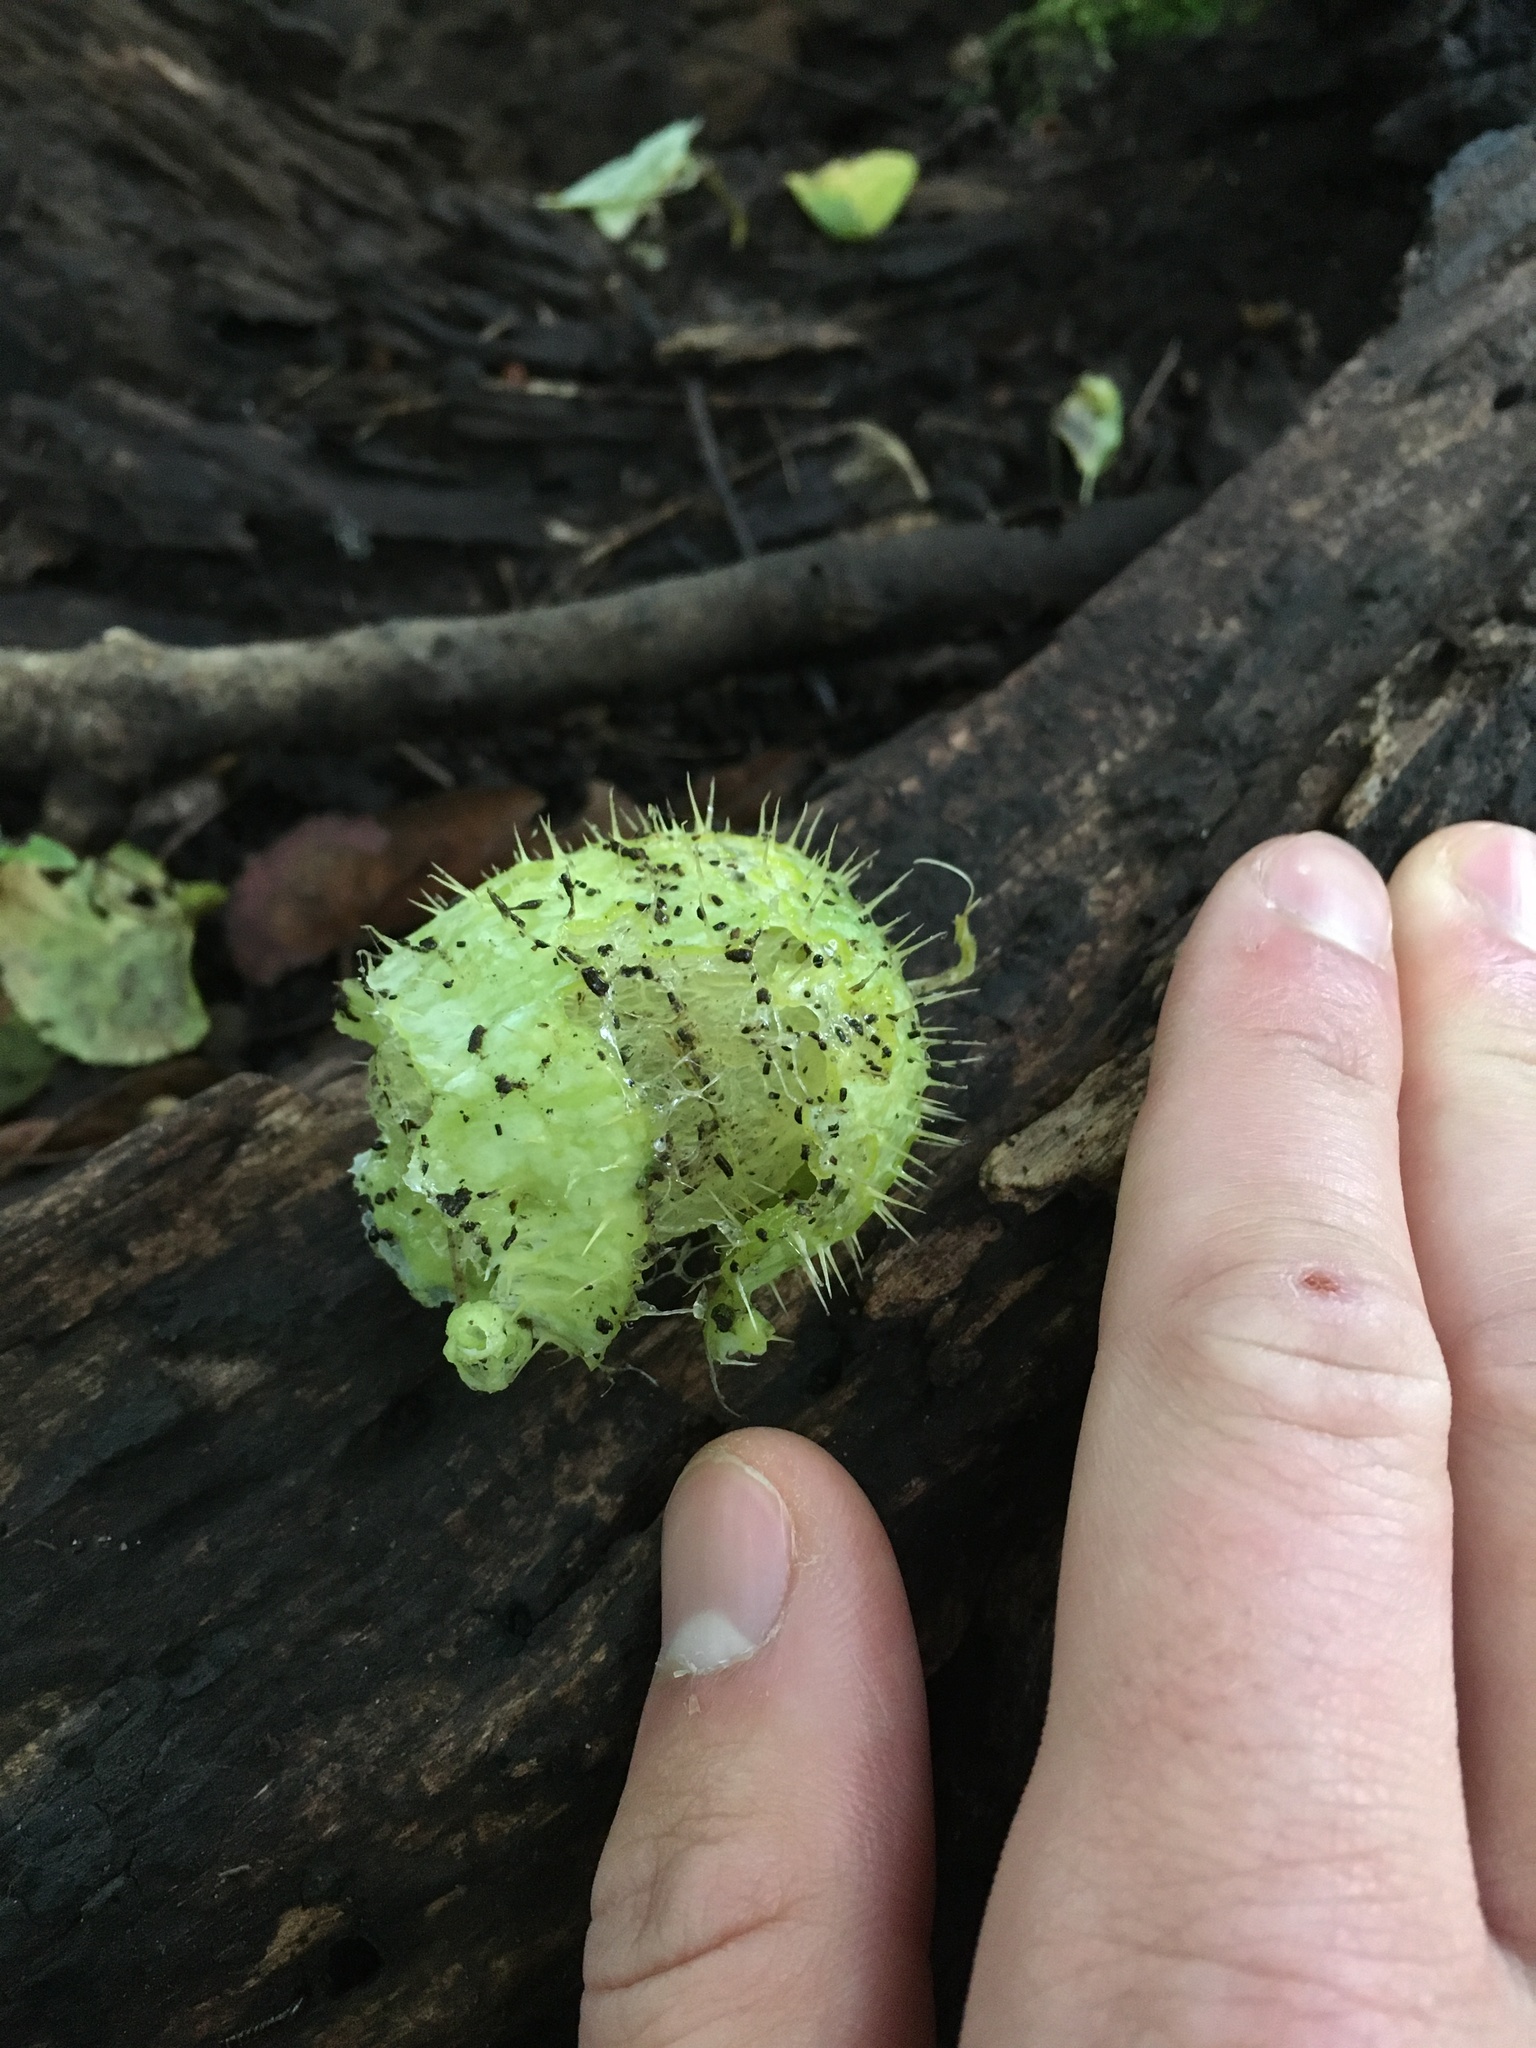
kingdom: Plantae
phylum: Tracheophyta
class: Magnoliopsida
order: Cucurbitales
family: Cucurbitaceae
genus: Echinocystis
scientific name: Echinocystis lobata
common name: Wild cucumber
